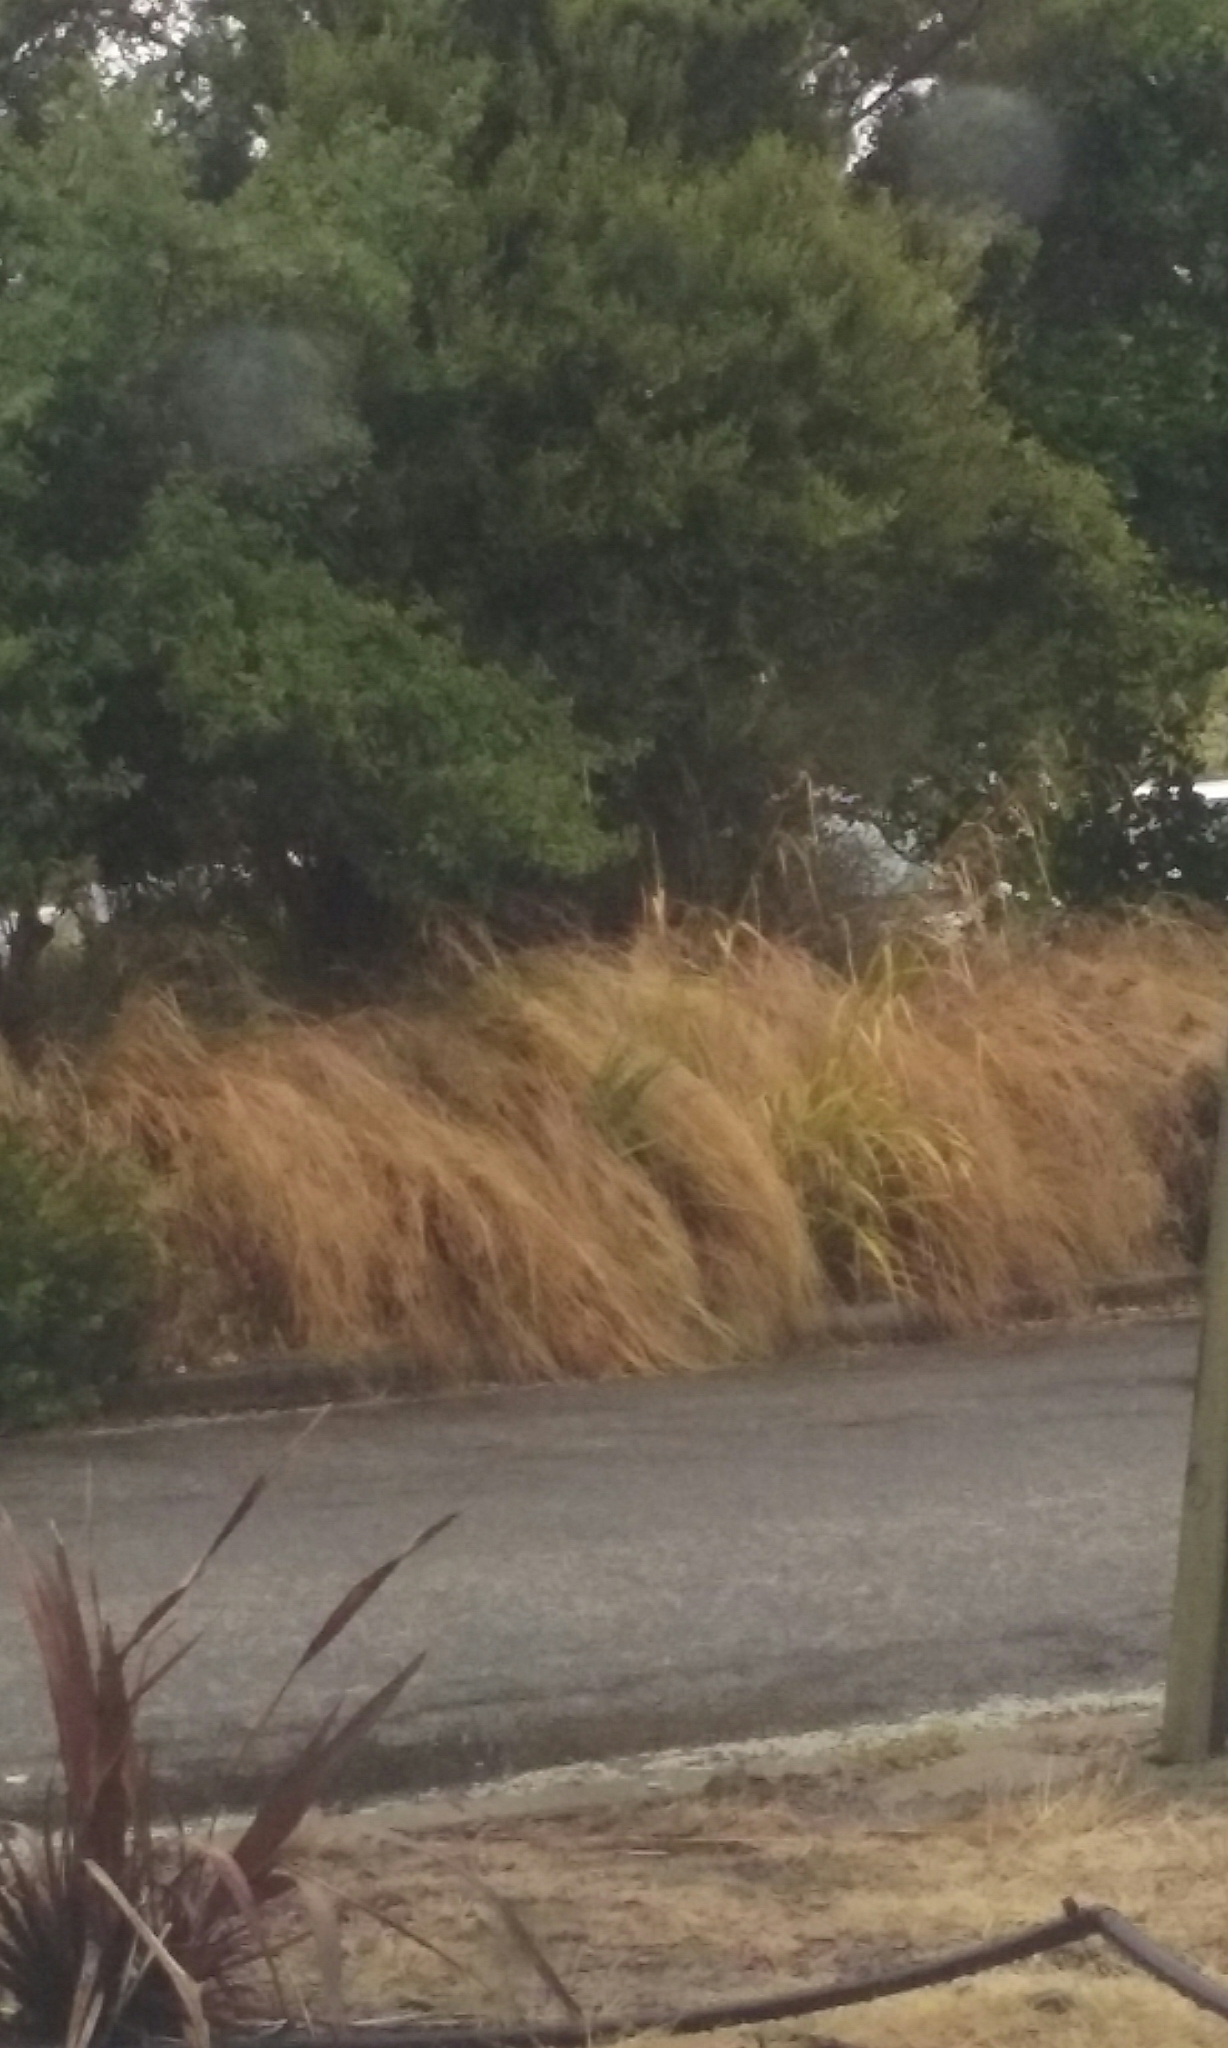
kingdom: Plantae
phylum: Tracheophyta
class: Liliopsida
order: Poales
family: Cyperaceae
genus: Carex
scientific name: Carex pendula
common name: Pendulous sedge
